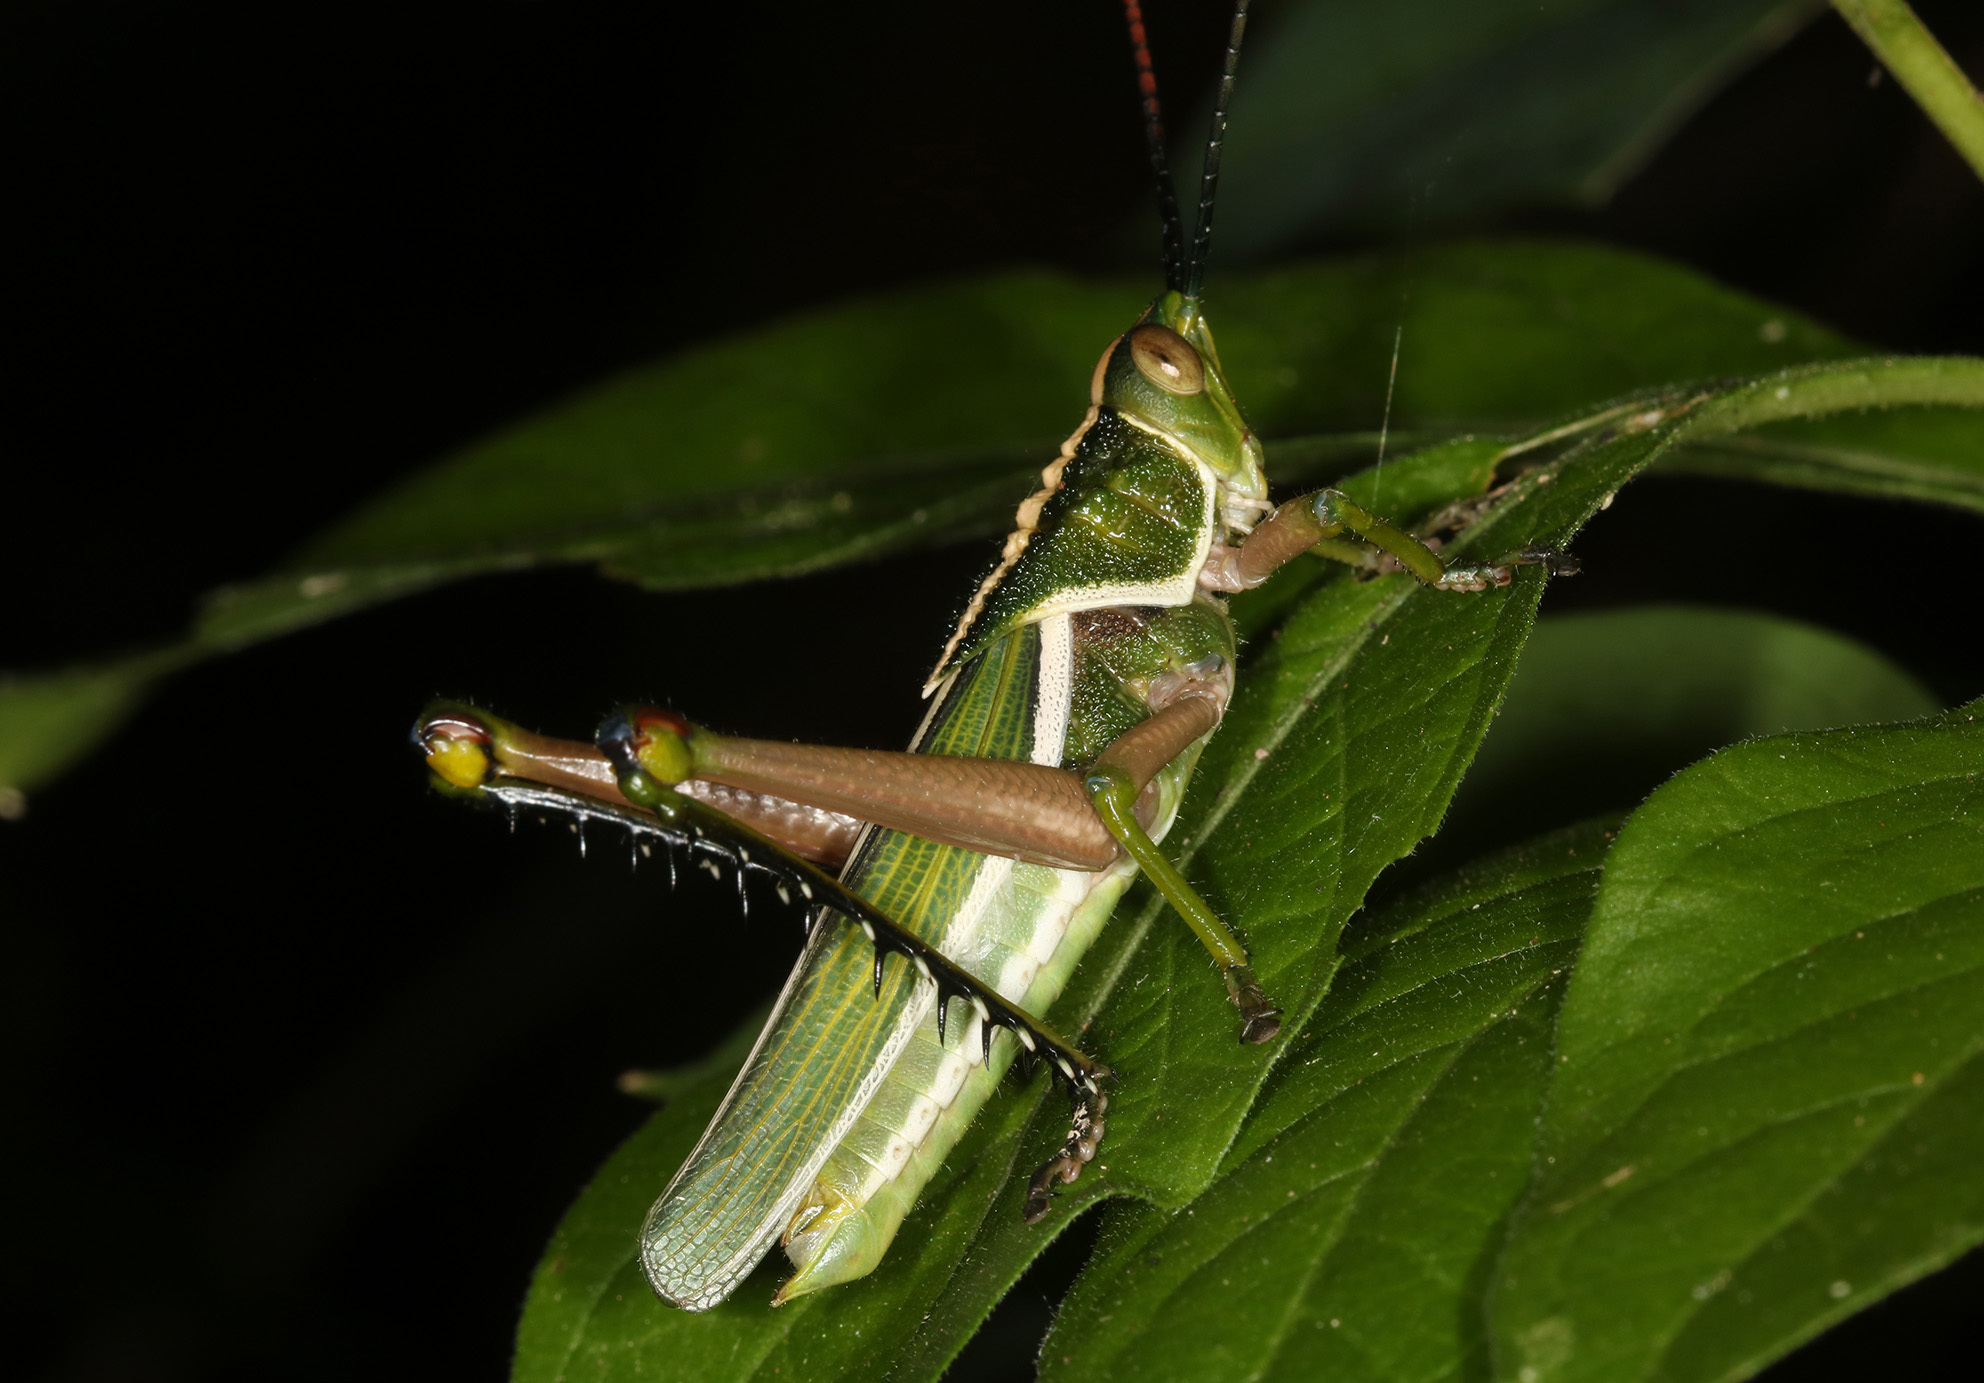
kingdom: Animalia
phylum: Arthropoda
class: Insecta
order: Orthoptera
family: Romaleidae
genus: Staleochlora
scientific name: Staleochlora ronderosi
